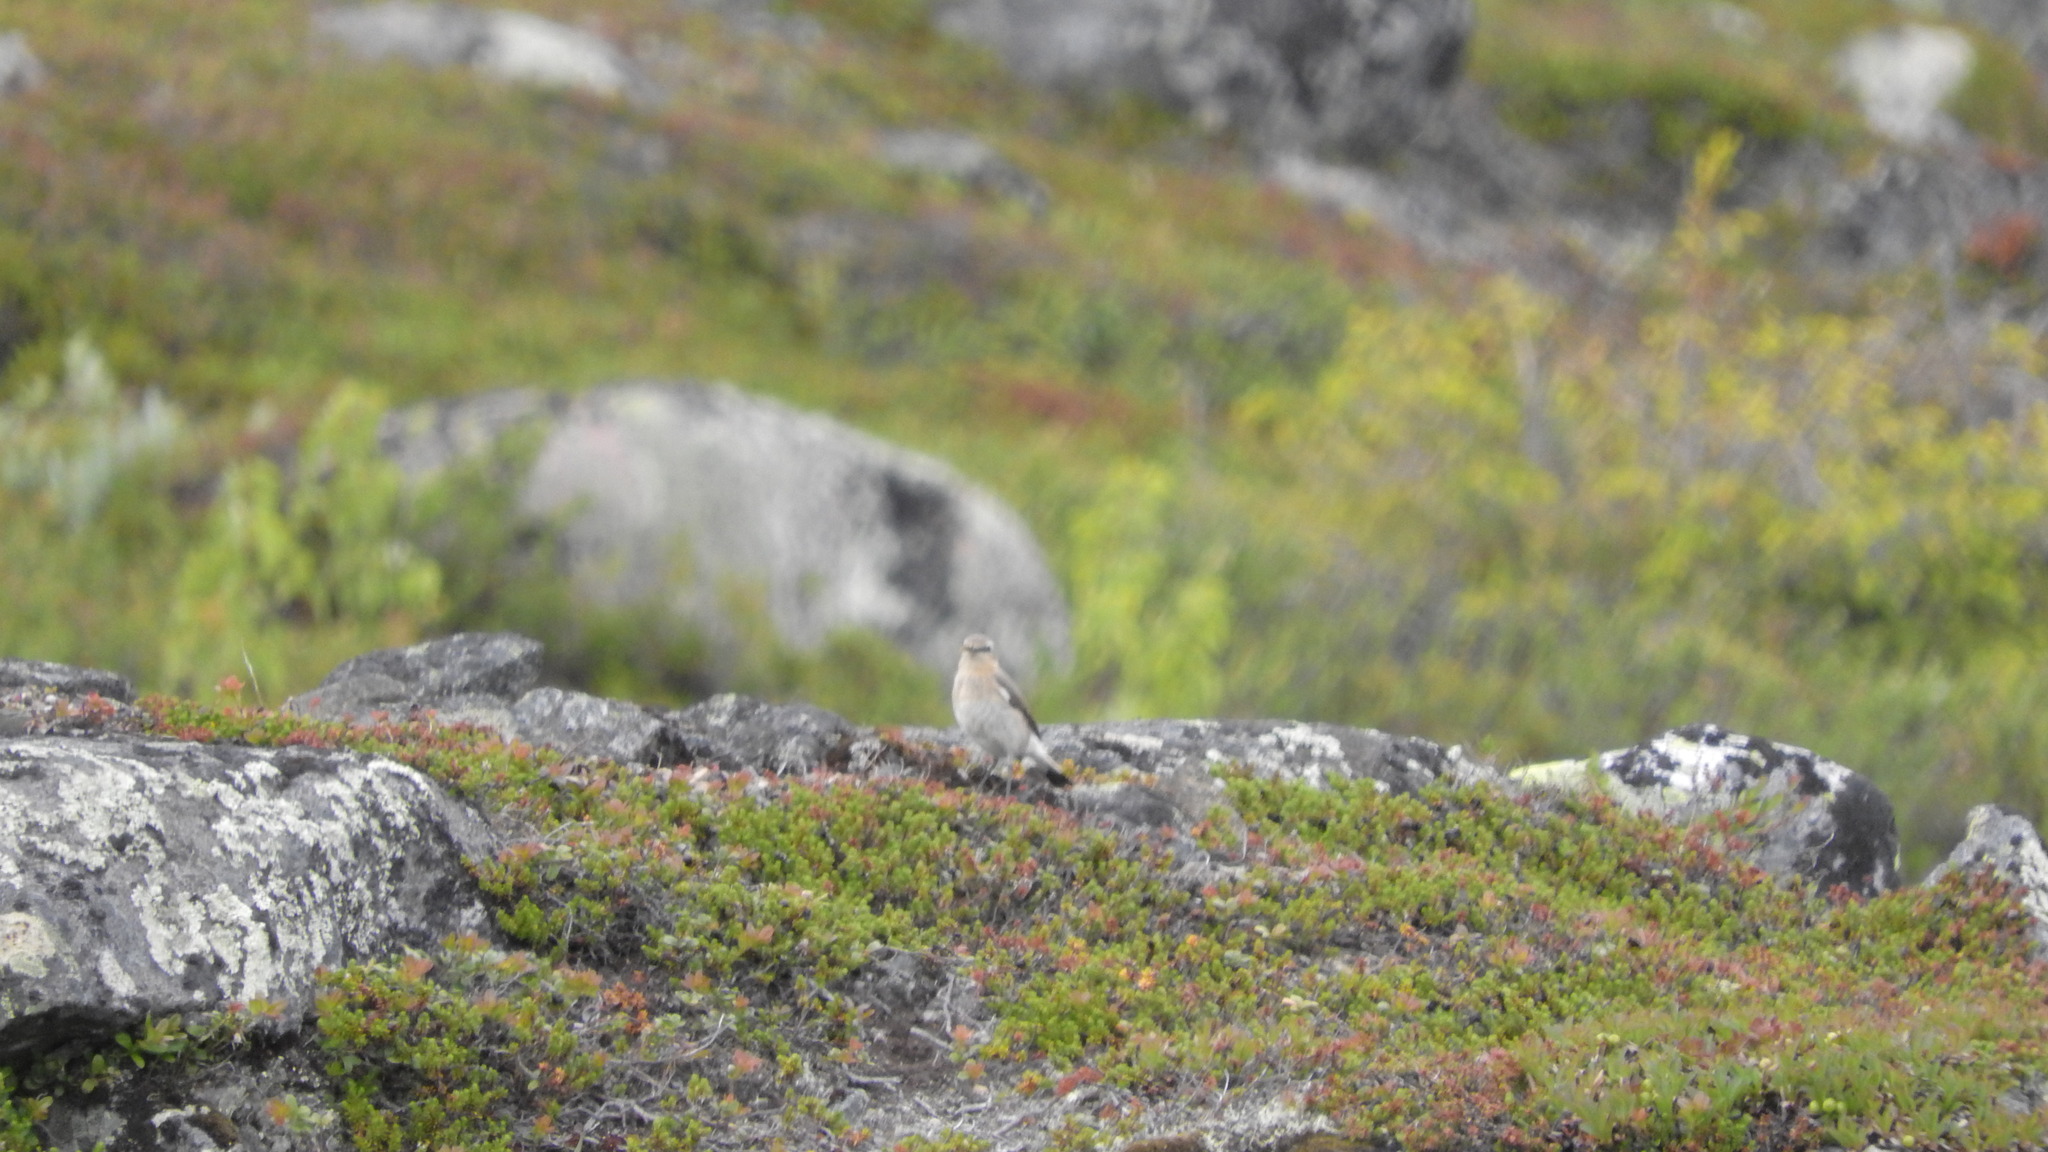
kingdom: Animalia
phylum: Chordata
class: Aves
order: Passeriformes
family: Muscicapidae
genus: Oenanthe
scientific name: Oenanthe oenanthe
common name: Northern wheatear
